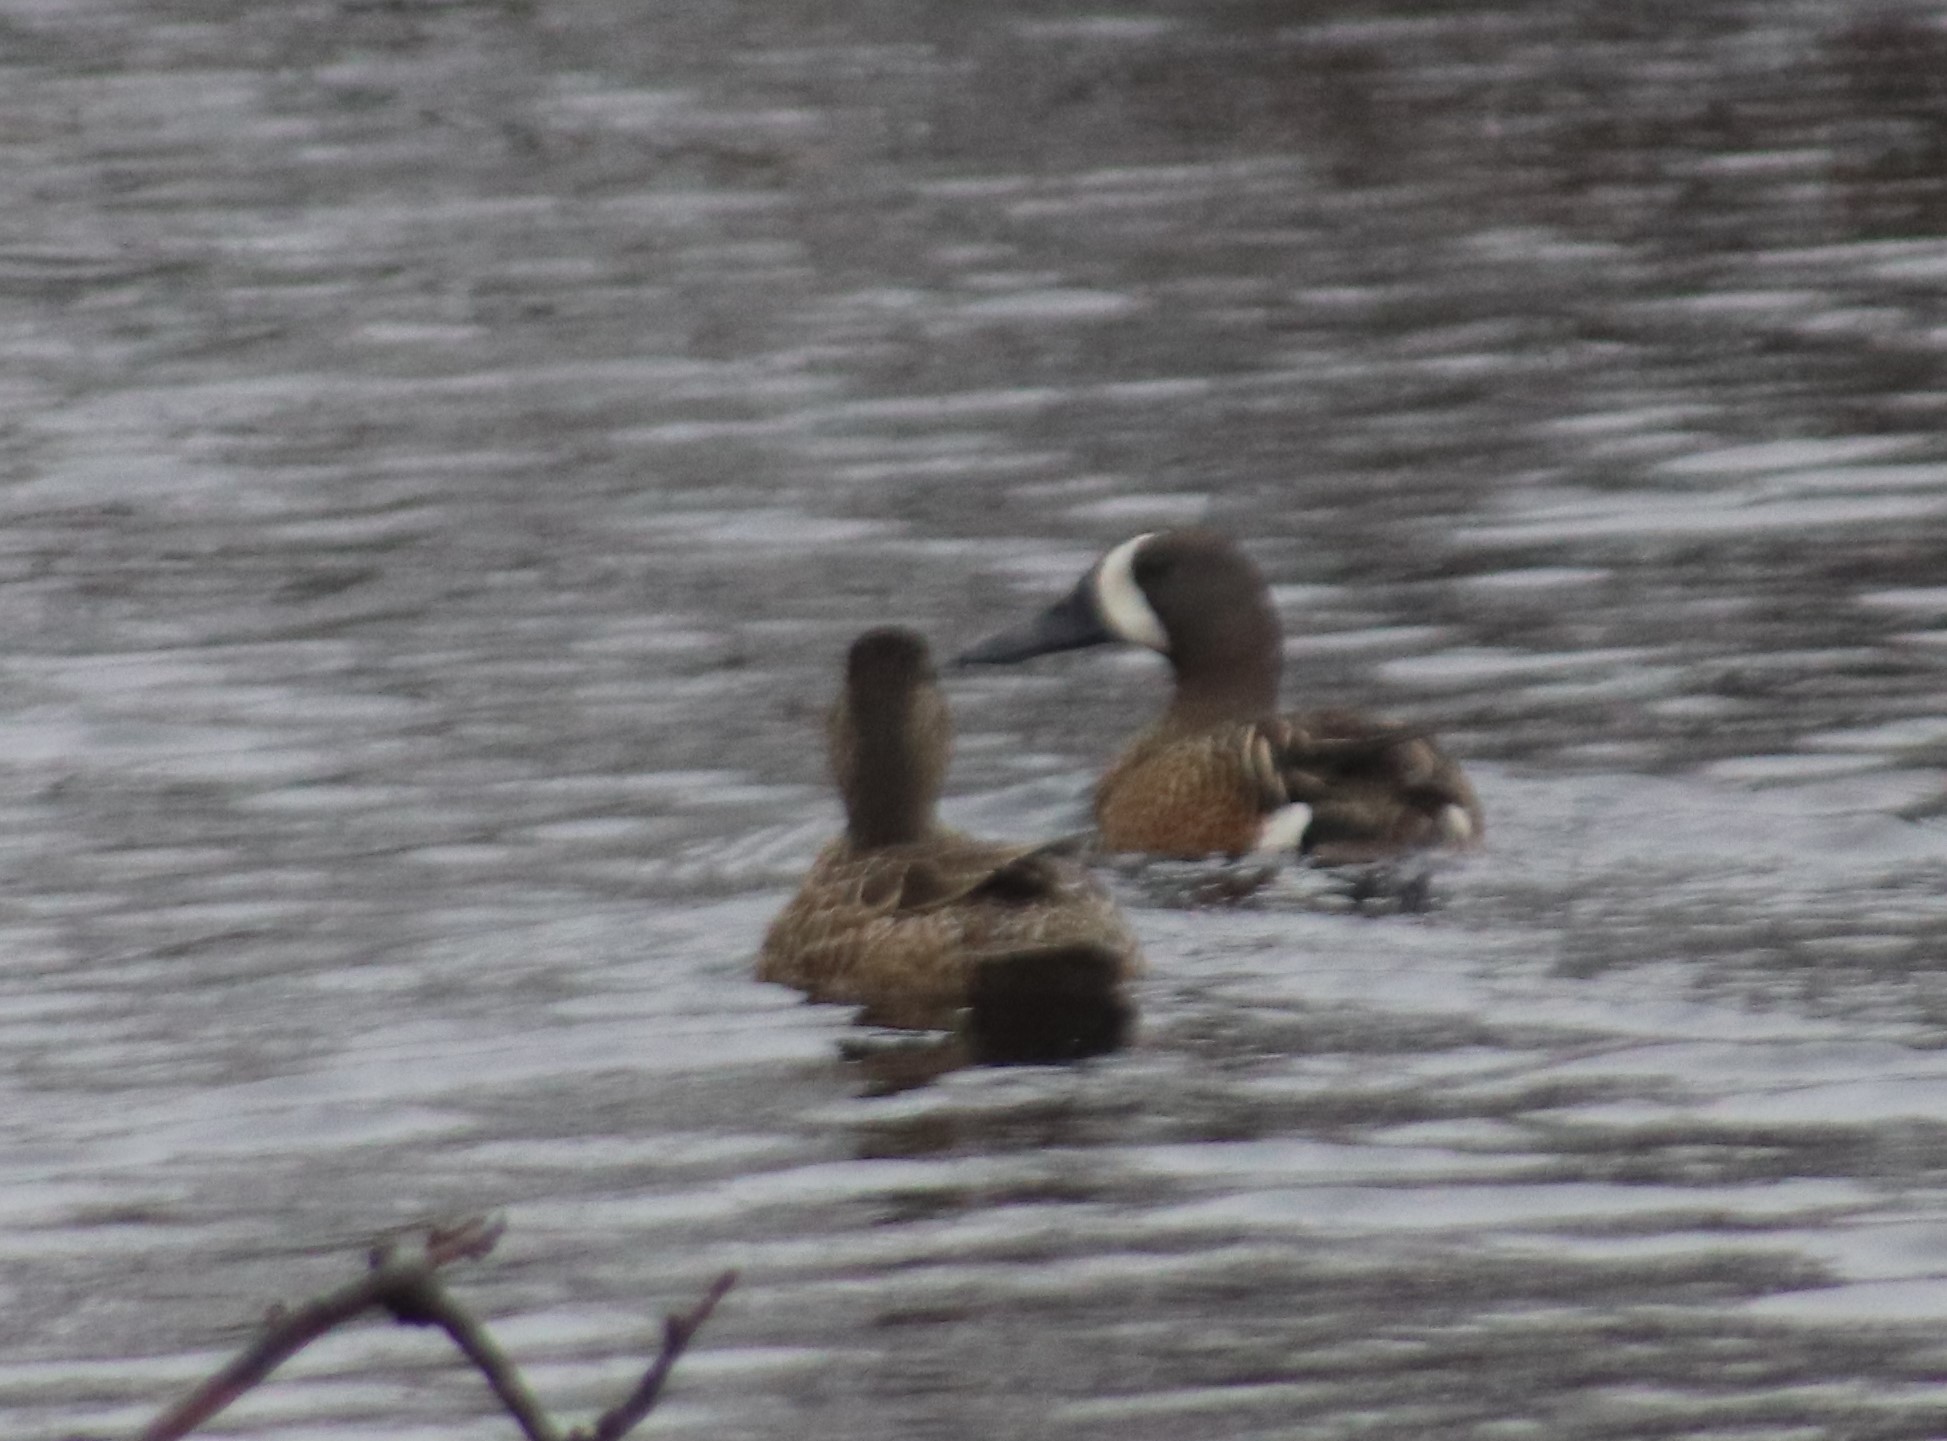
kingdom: Animalia
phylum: Chordata
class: Aves
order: Anseriformes
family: Anatidae
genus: Spatula
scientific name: Spatula discors
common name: Blue-winged teal
